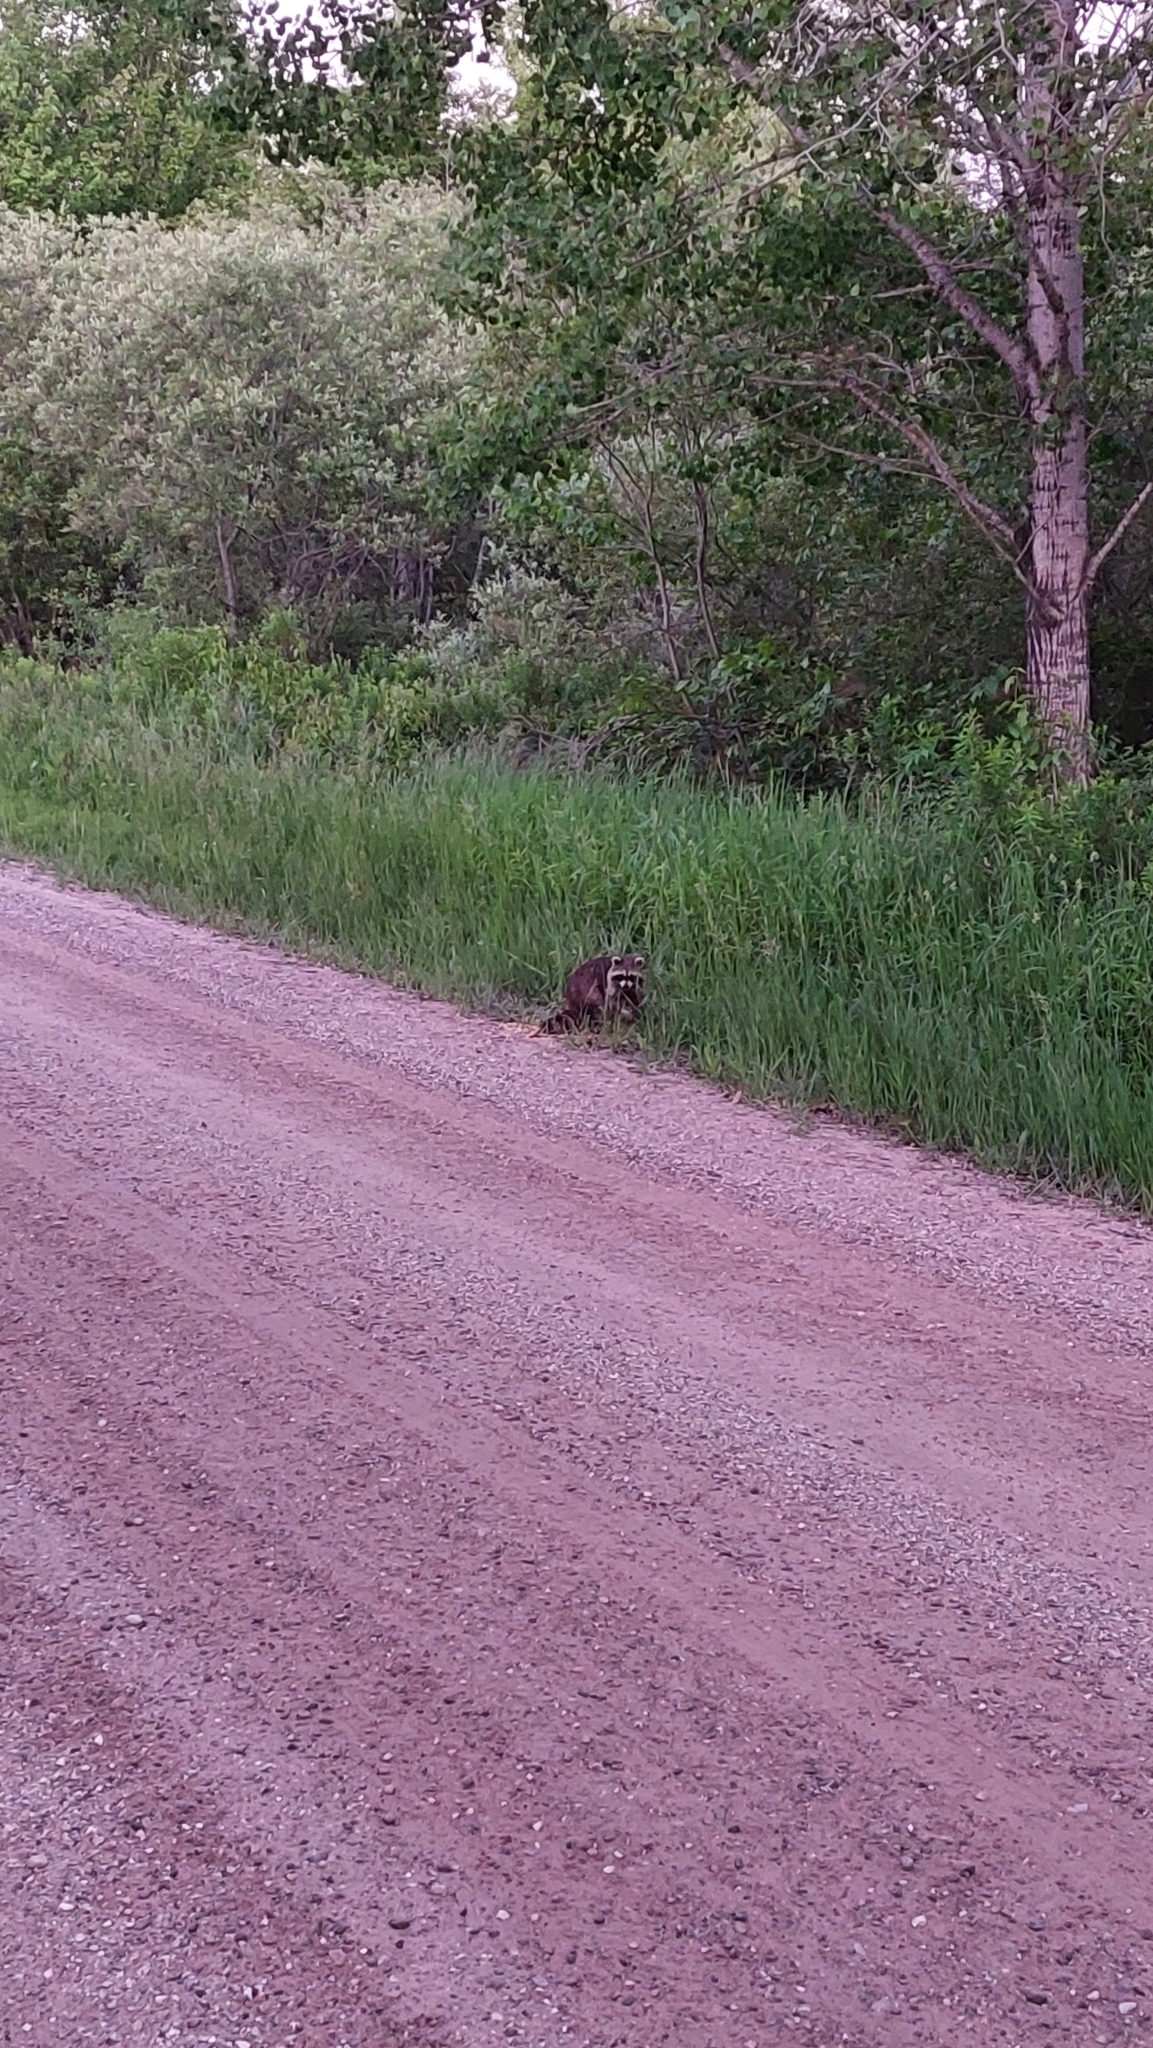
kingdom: Animalia
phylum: Chordata
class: Mammalia
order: Carnivora
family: Procyonidae
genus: Procyon
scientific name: Procyon lotor
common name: Raccoon
